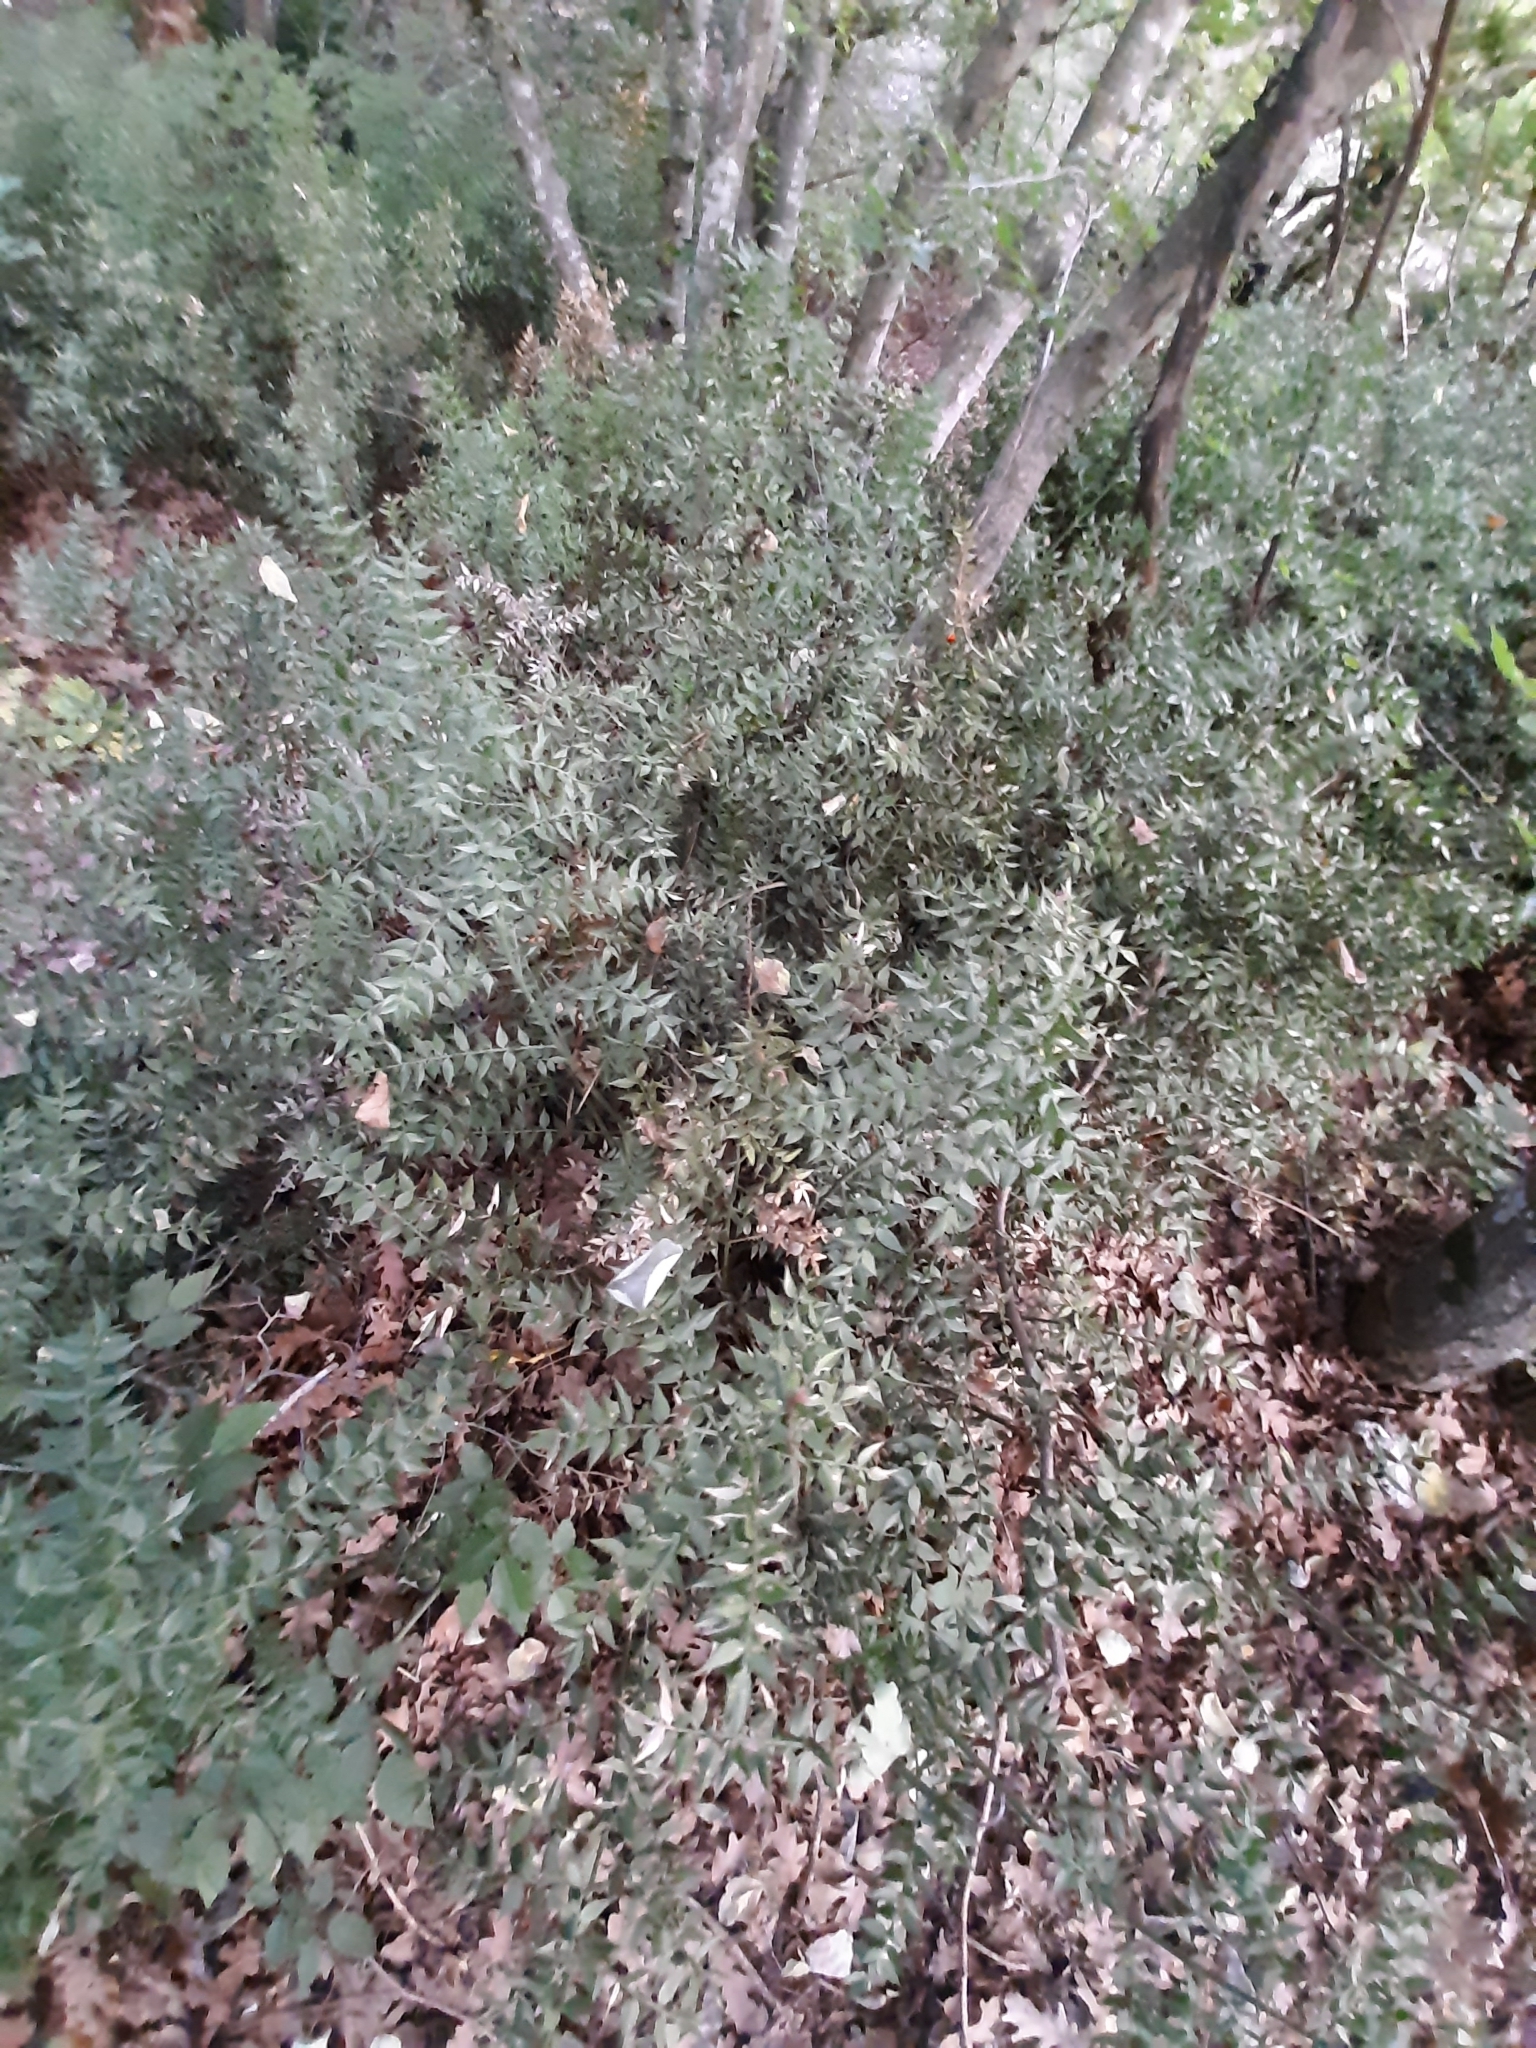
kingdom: Plantae
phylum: Tracheophyta
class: Liliopsida
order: Asparagales
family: Asparagaceae
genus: Ruscus
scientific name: Ruscus aculeatus
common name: Butcher's-broom
